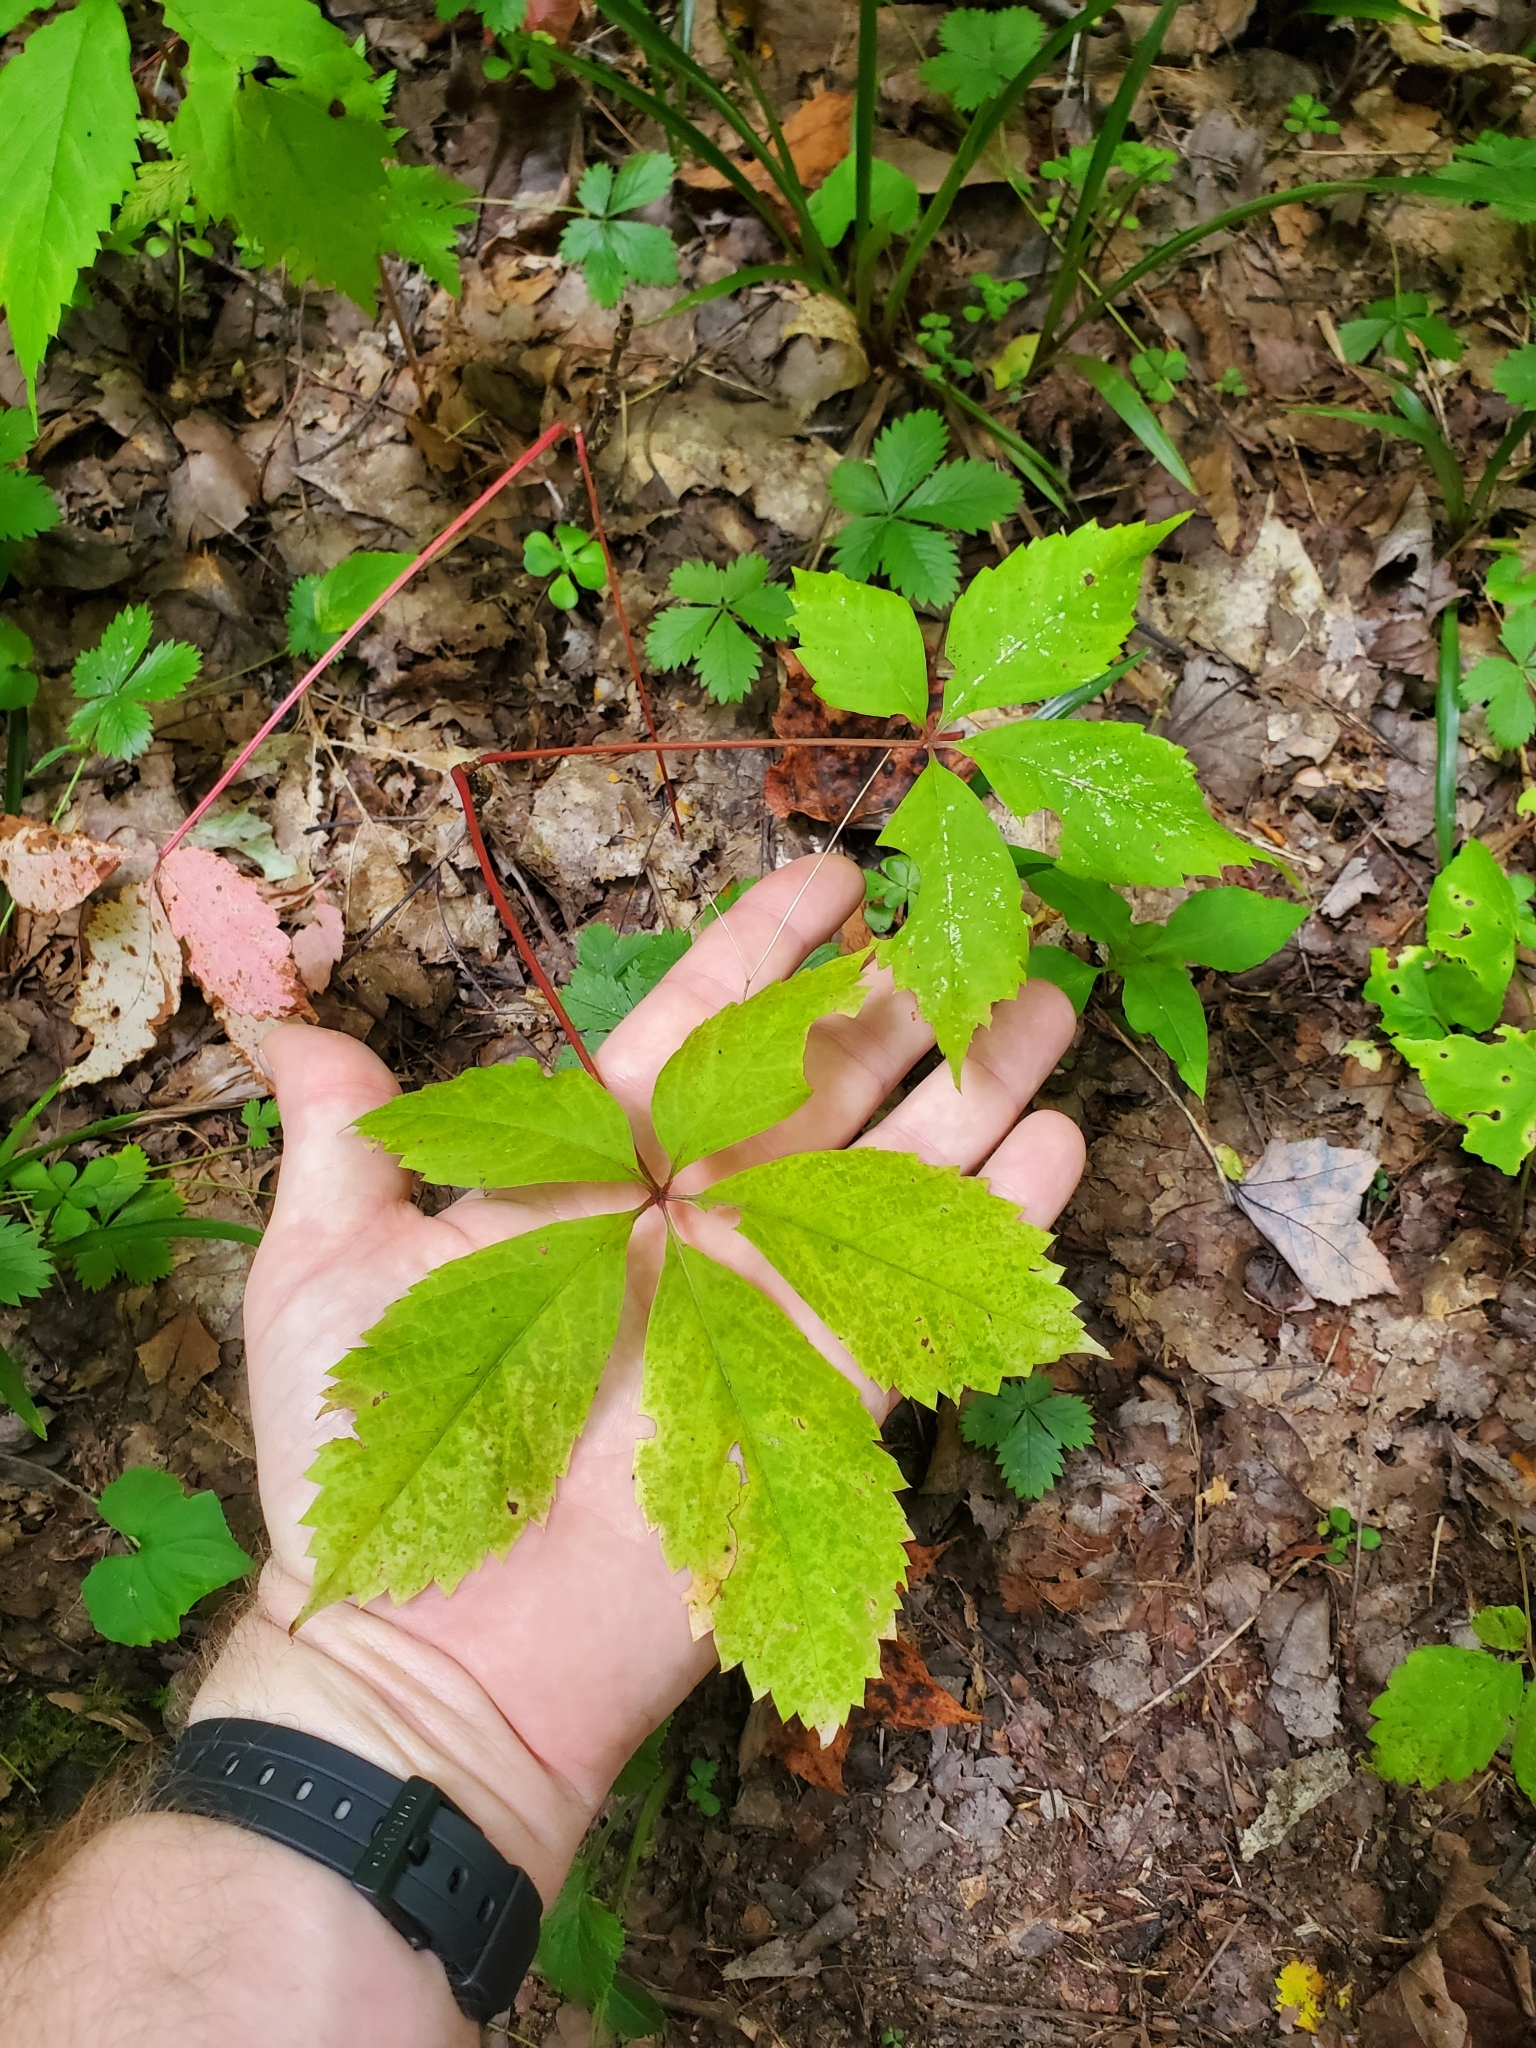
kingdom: Plantae
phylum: Tracheophyta
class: Magnoliopsida
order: Vitales
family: Vitaceae
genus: Parthenocissus
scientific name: Parthenocissus quinquefolia
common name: Virginia-creeper
